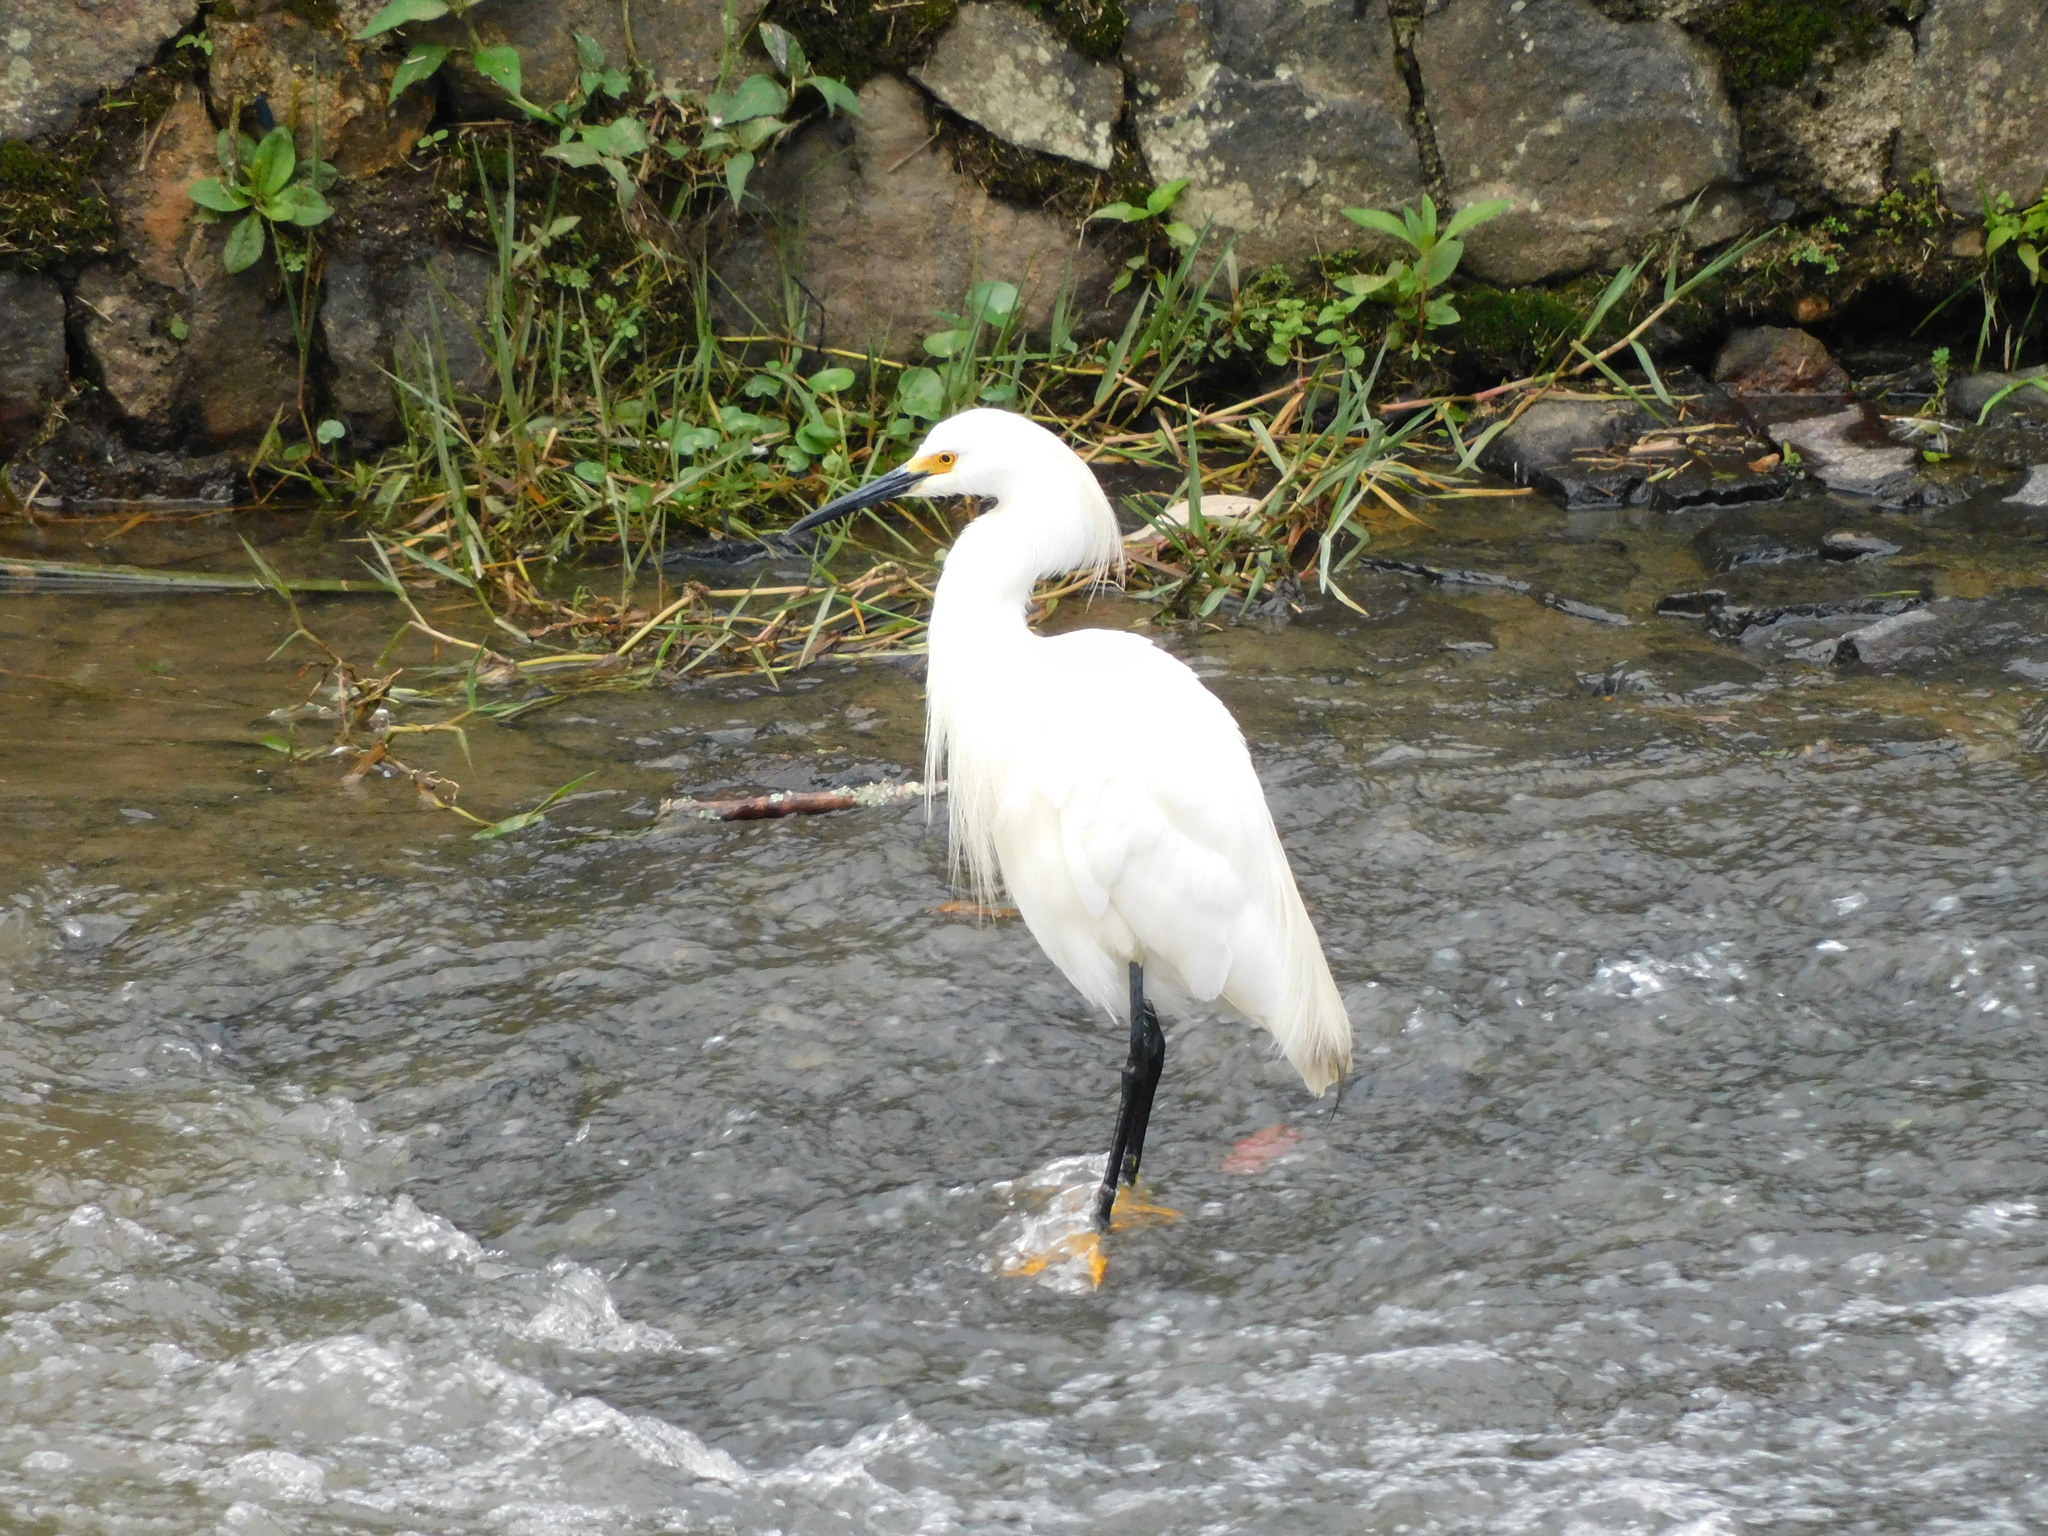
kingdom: Animalia
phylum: Chordata
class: Aves
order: Pelecaniformes
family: Ardeidae
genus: Egretta
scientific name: Egretta thula
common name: Snowy egret
